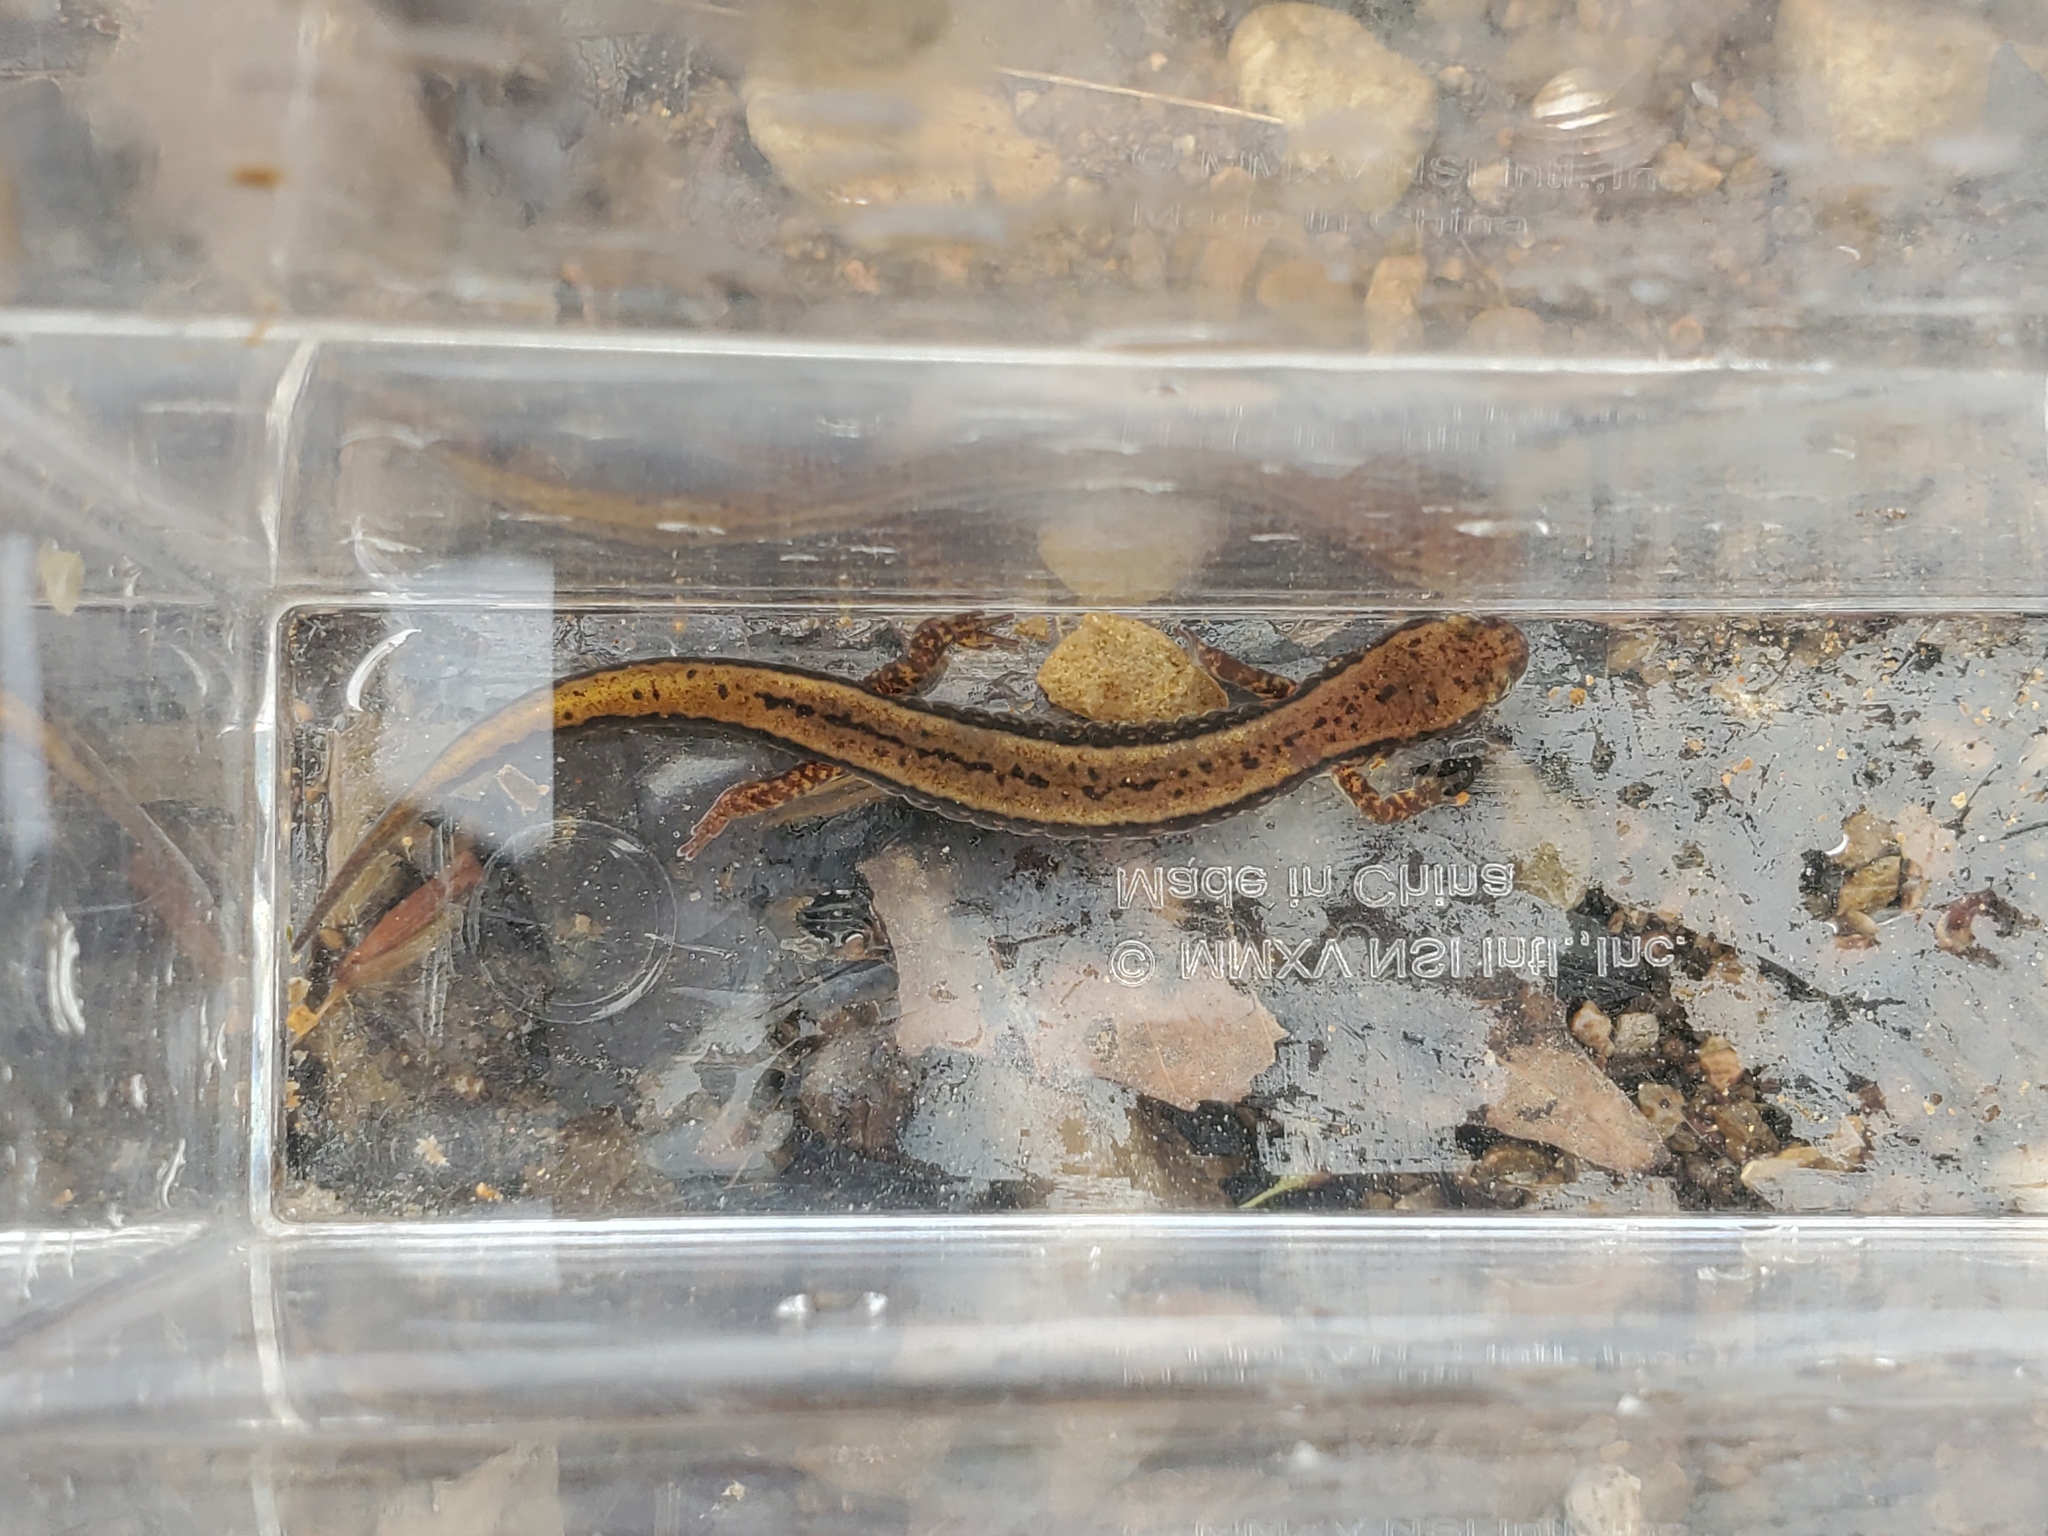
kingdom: Animalia
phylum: Chordata
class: Amphibia
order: Caudata
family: Plethodontidae
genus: Eurycea
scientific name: Eurycea cirrigera
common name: Southern two-lined salamander
